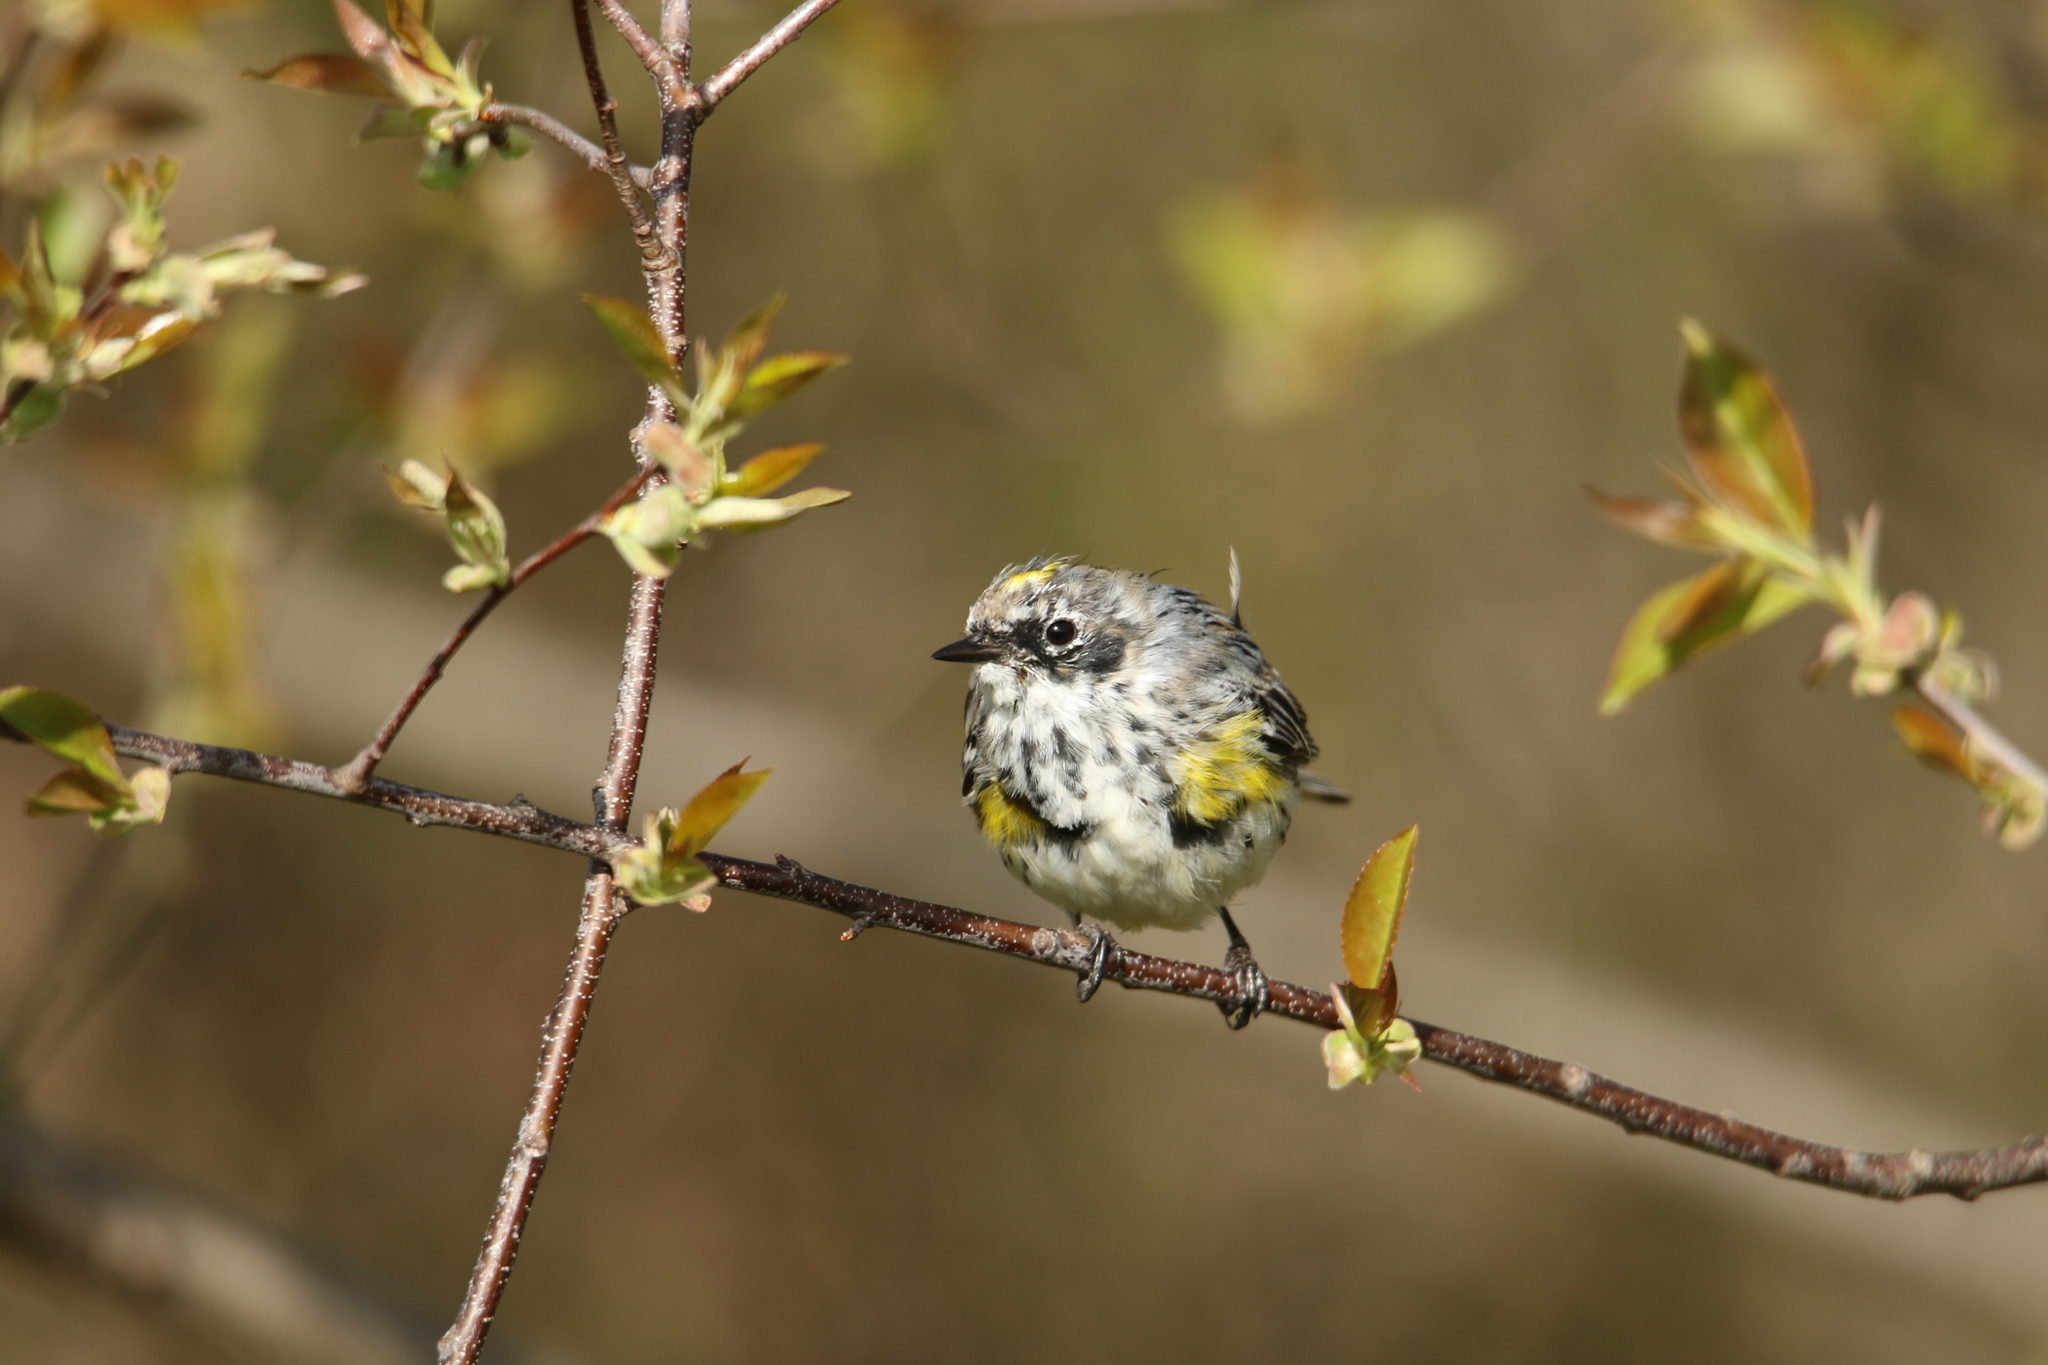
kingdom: Animalia
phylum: Chordata
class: Aves
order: Passeriformes
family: Parulidae
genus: Setophaga
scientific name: Setophaga coronata
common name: Myrtle warbler
